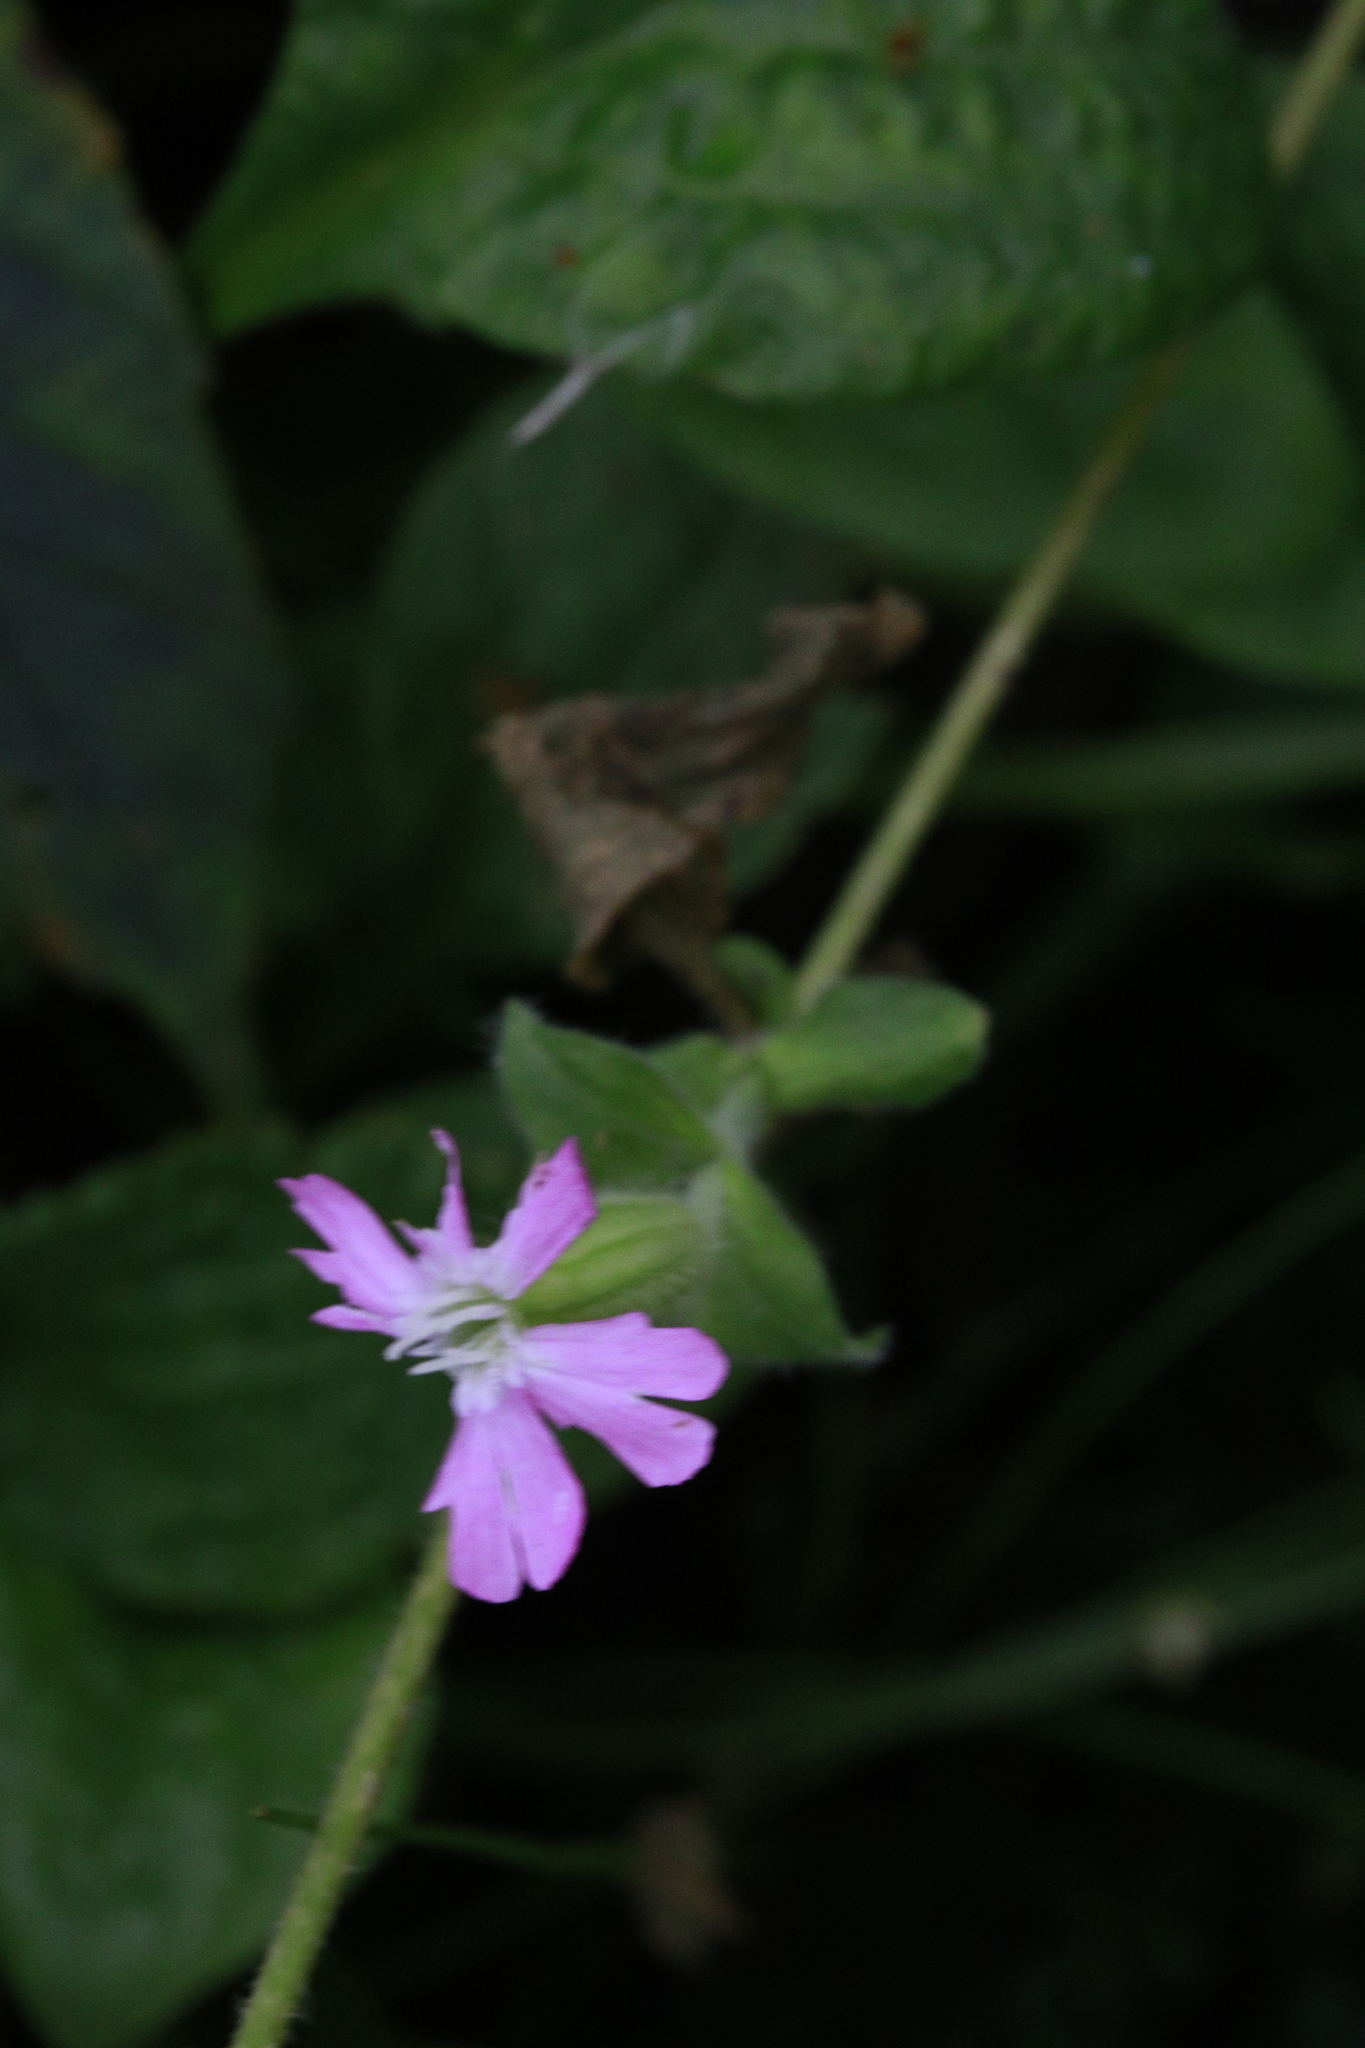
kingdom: Plantae
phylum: Tracheophyta
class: Magnoliopsida
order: Caryophyllales
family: Caryophyllaceae
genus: Silene
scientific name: Silene dioica
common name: Red campion
